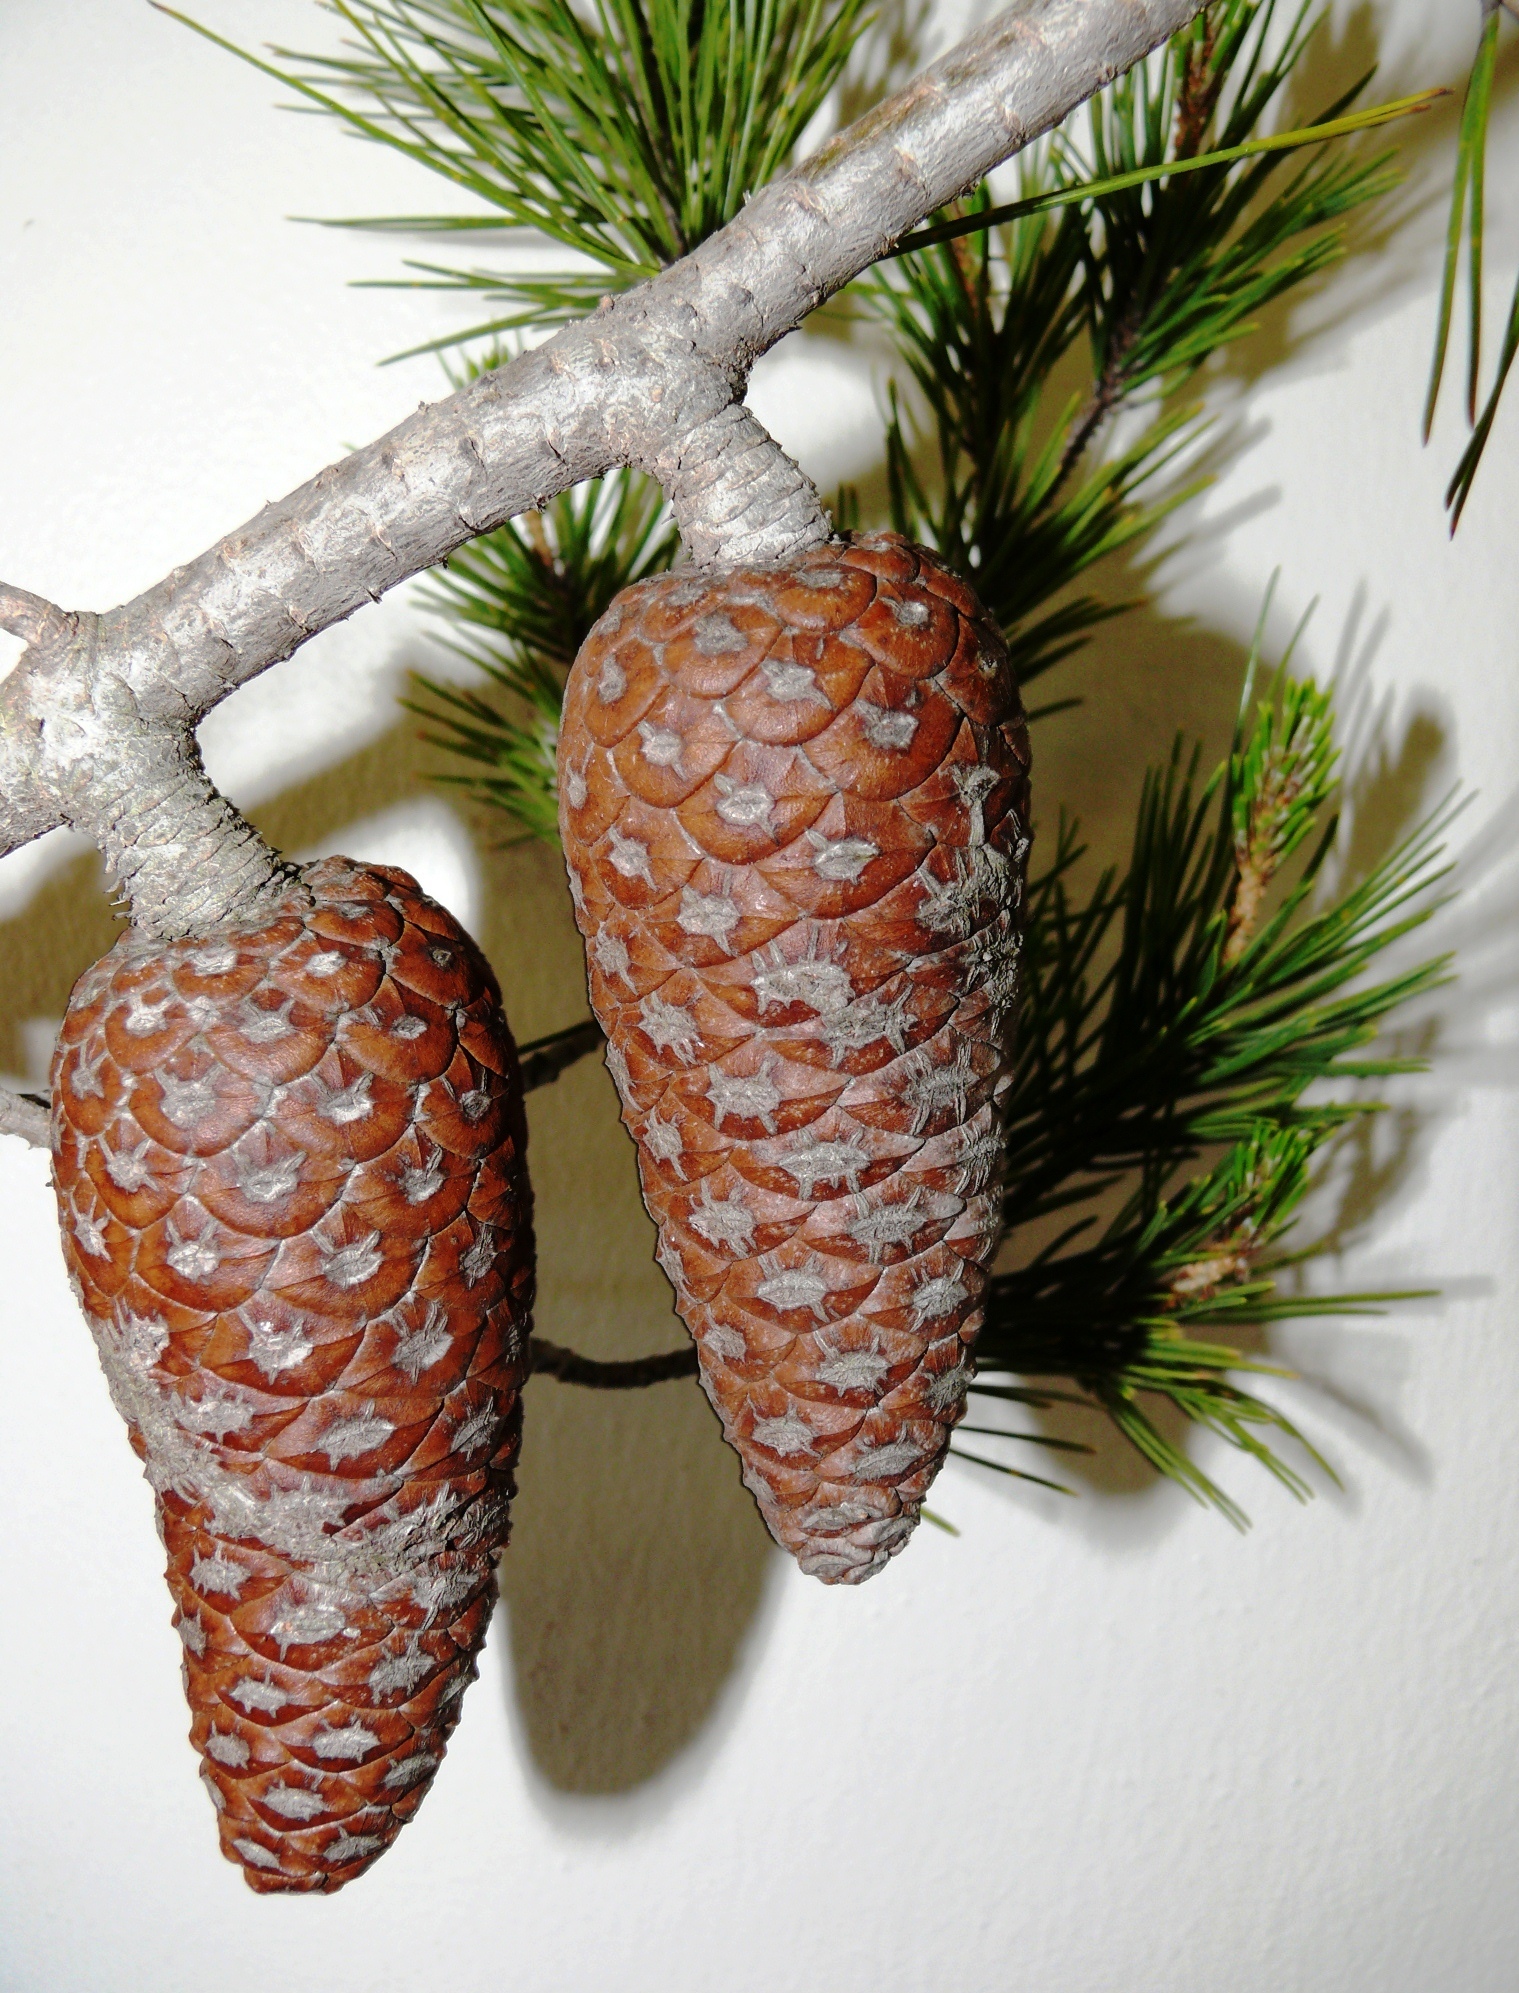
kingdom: Plantae
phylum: Tracheophyta
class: Pinopsida
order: Pinales
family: Pinaceae
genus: Pinus
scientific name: Pinus halepensis
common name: Aleppo pine
